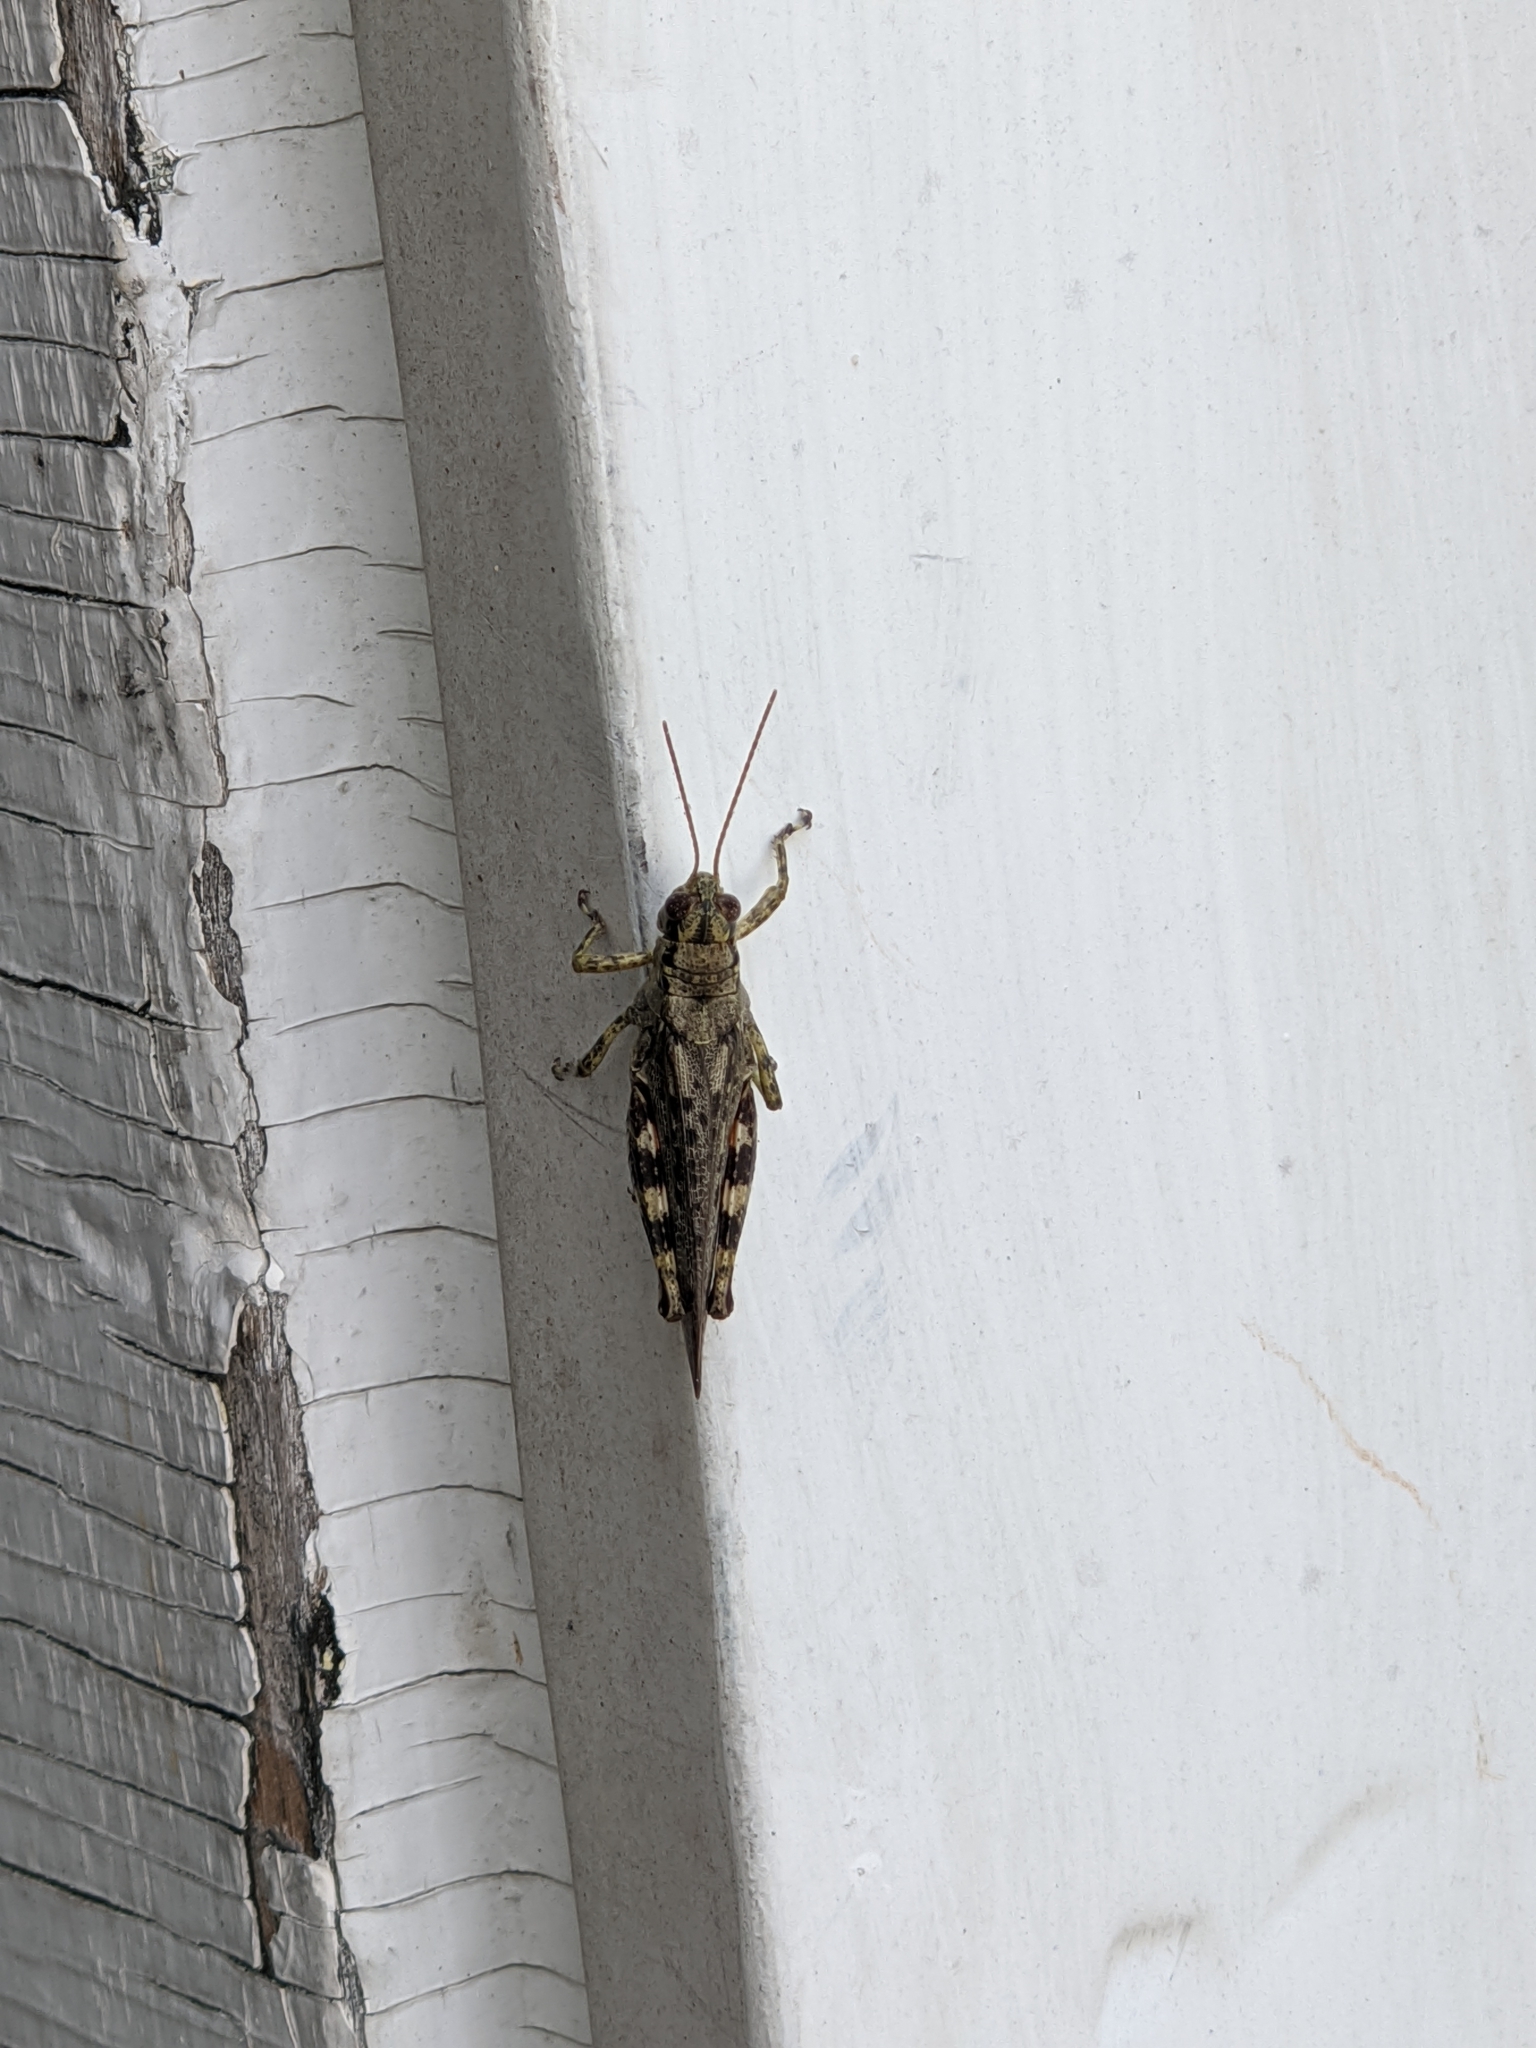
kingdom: Animalia
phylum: Arthropoda
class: Insecta
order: Orthoptera
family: Acrididae
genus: Melanoplus
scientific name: Melanoplus punctulatus
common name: Pine-tree spur-throat grasshopper
